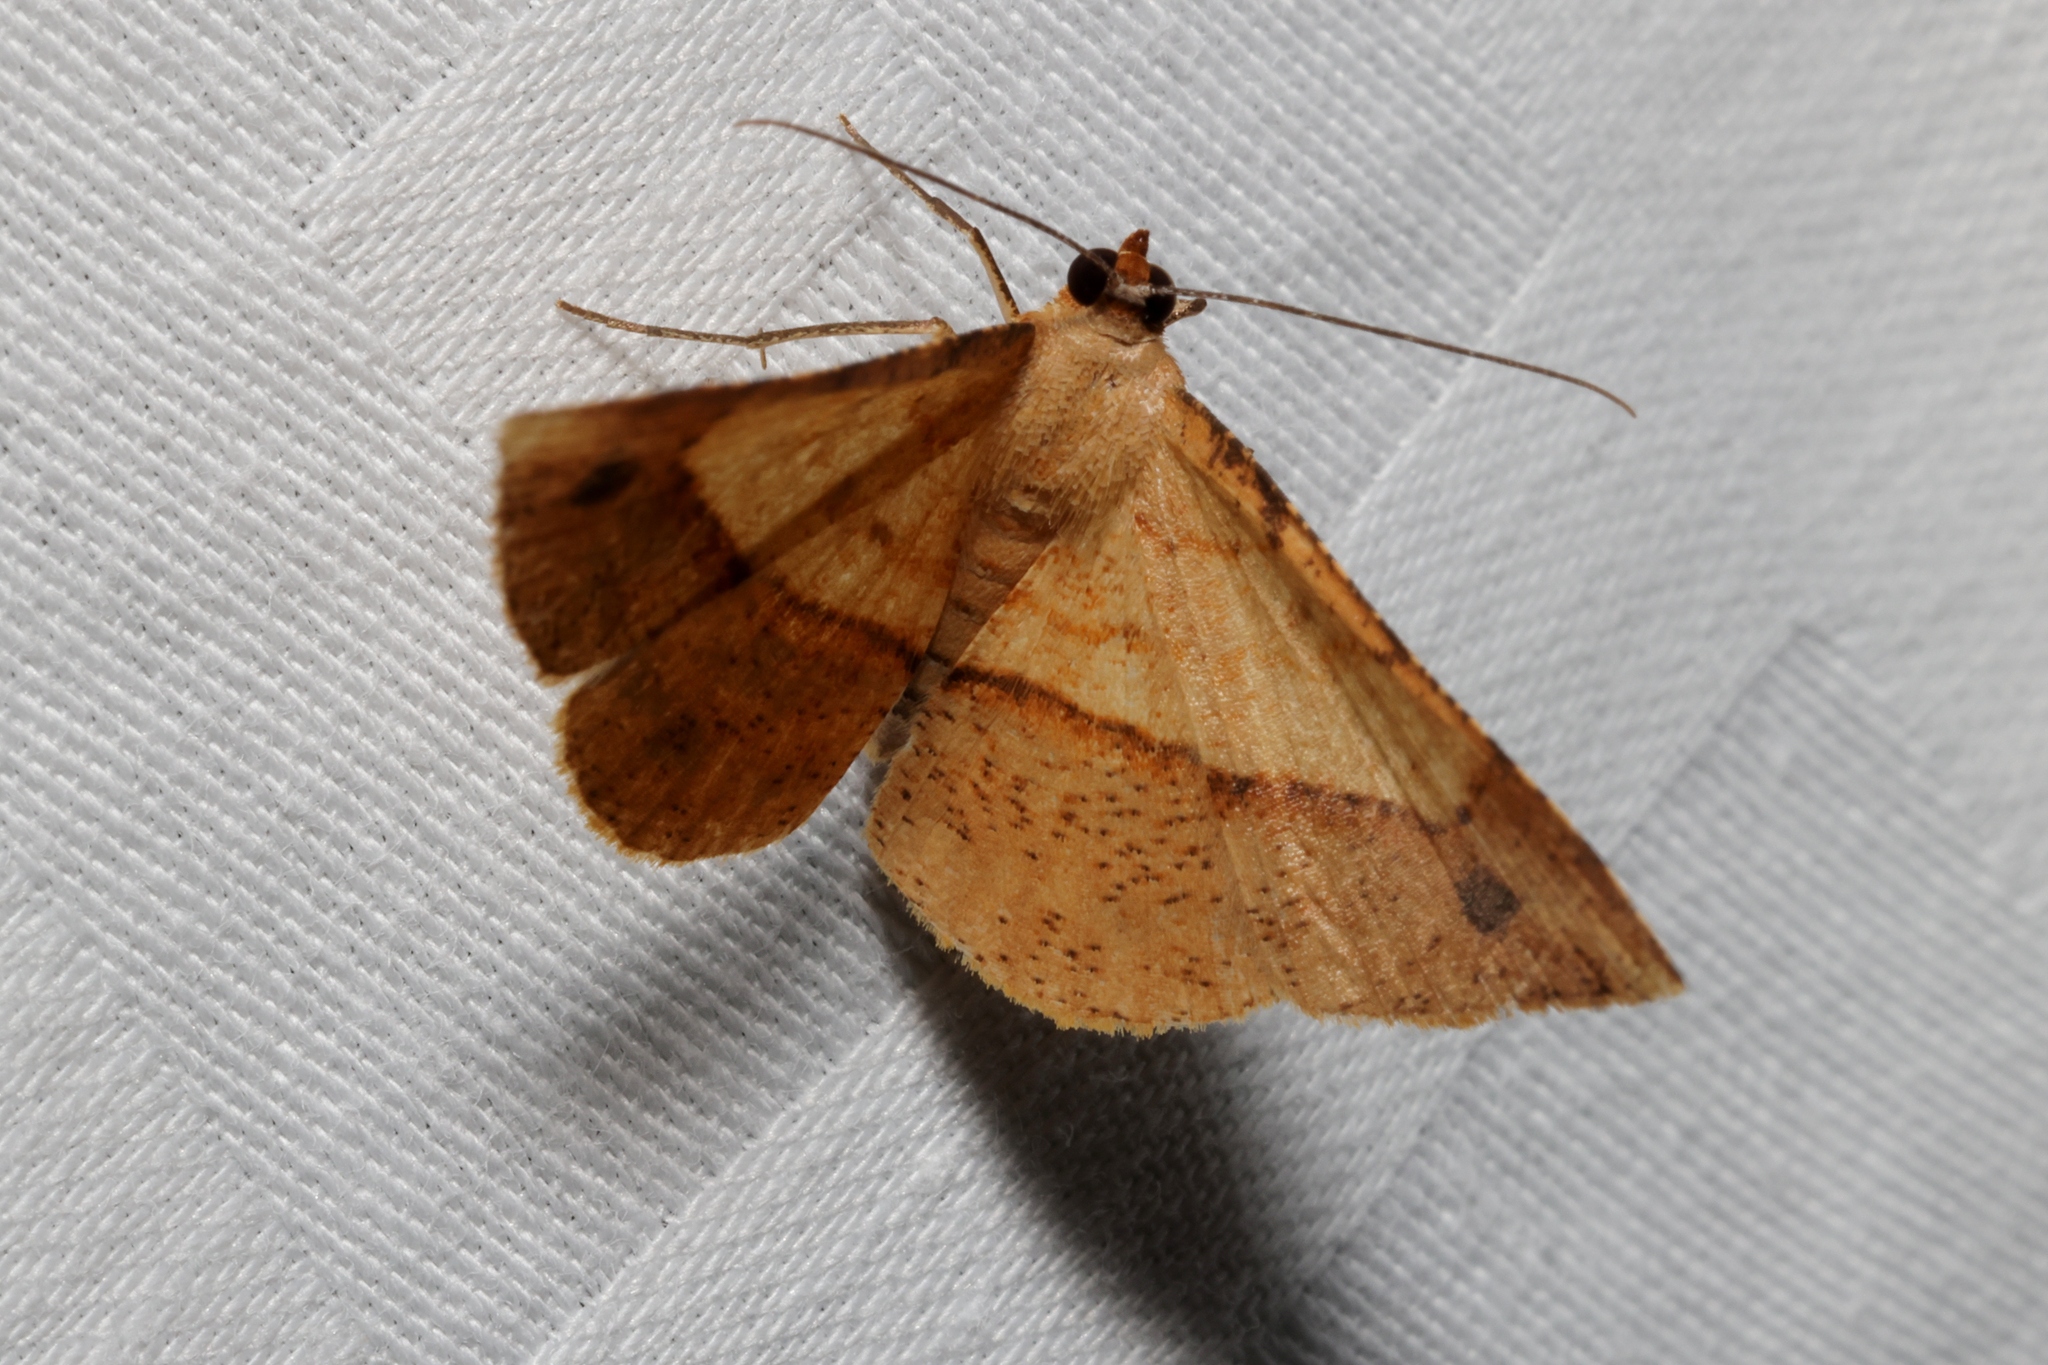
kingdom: Animalia
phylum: Arthropoda
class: Insecta
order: Lepidoptera
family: Geometridae
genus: Pseudonadagara
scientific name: Pseudonadagara semicolor
